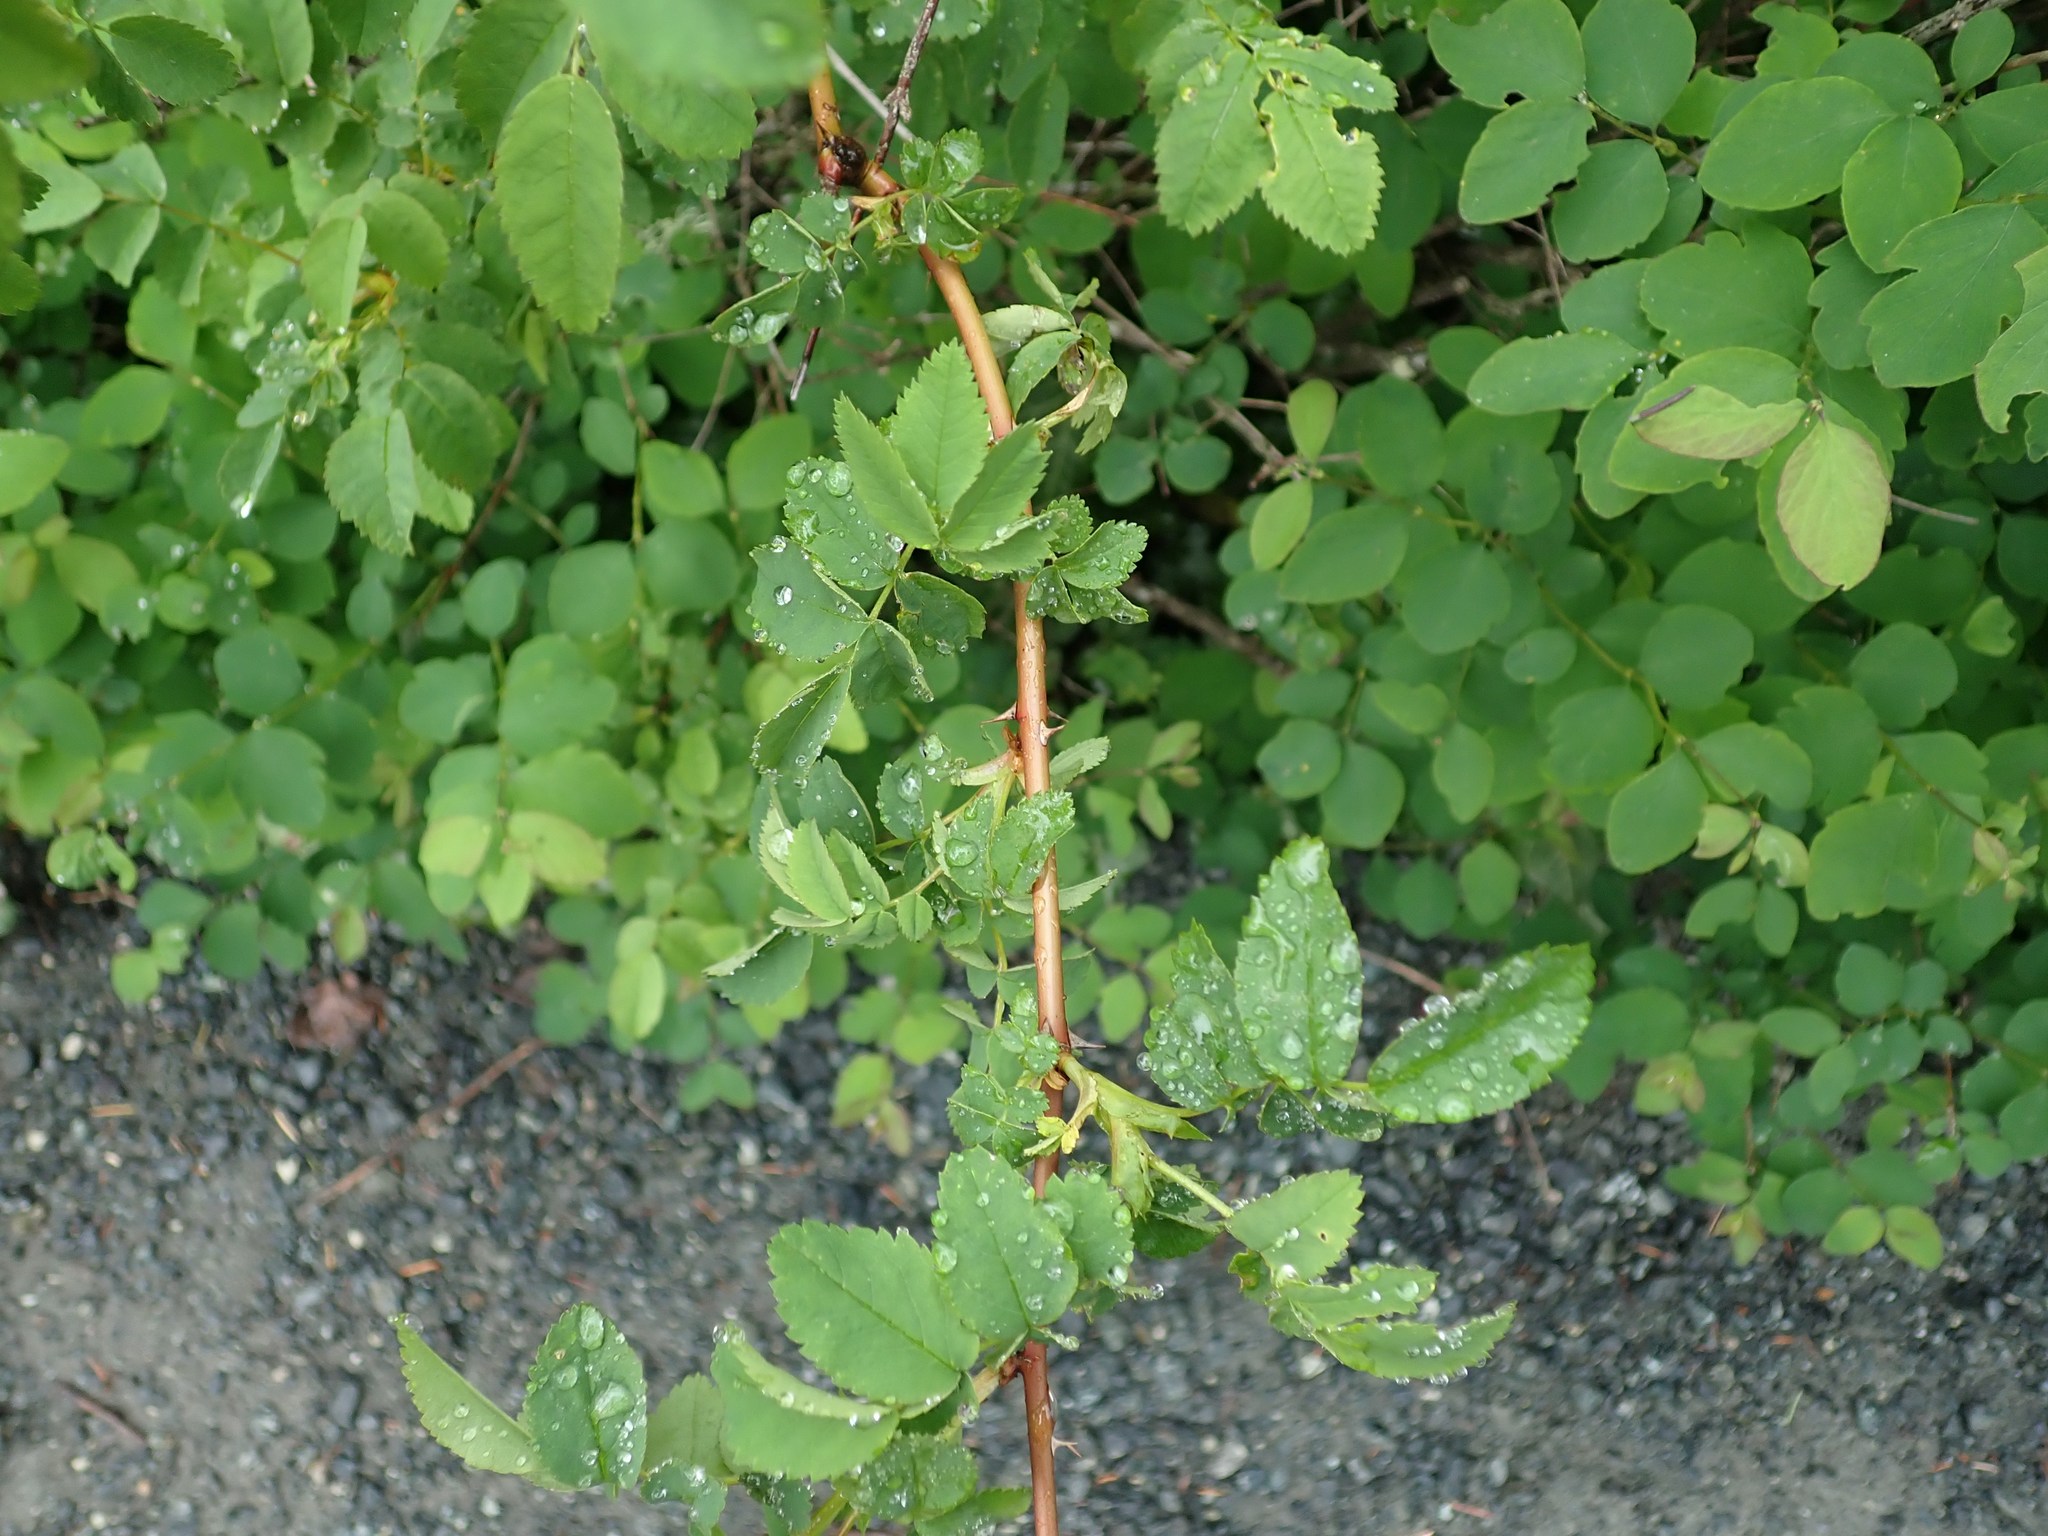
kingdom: Plantae
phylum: Tracheophyta
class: Magnoliopsida
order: Rosales
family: Rosaceae
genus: Rosa
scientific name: Rosa nutkana
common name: Nootka rose
